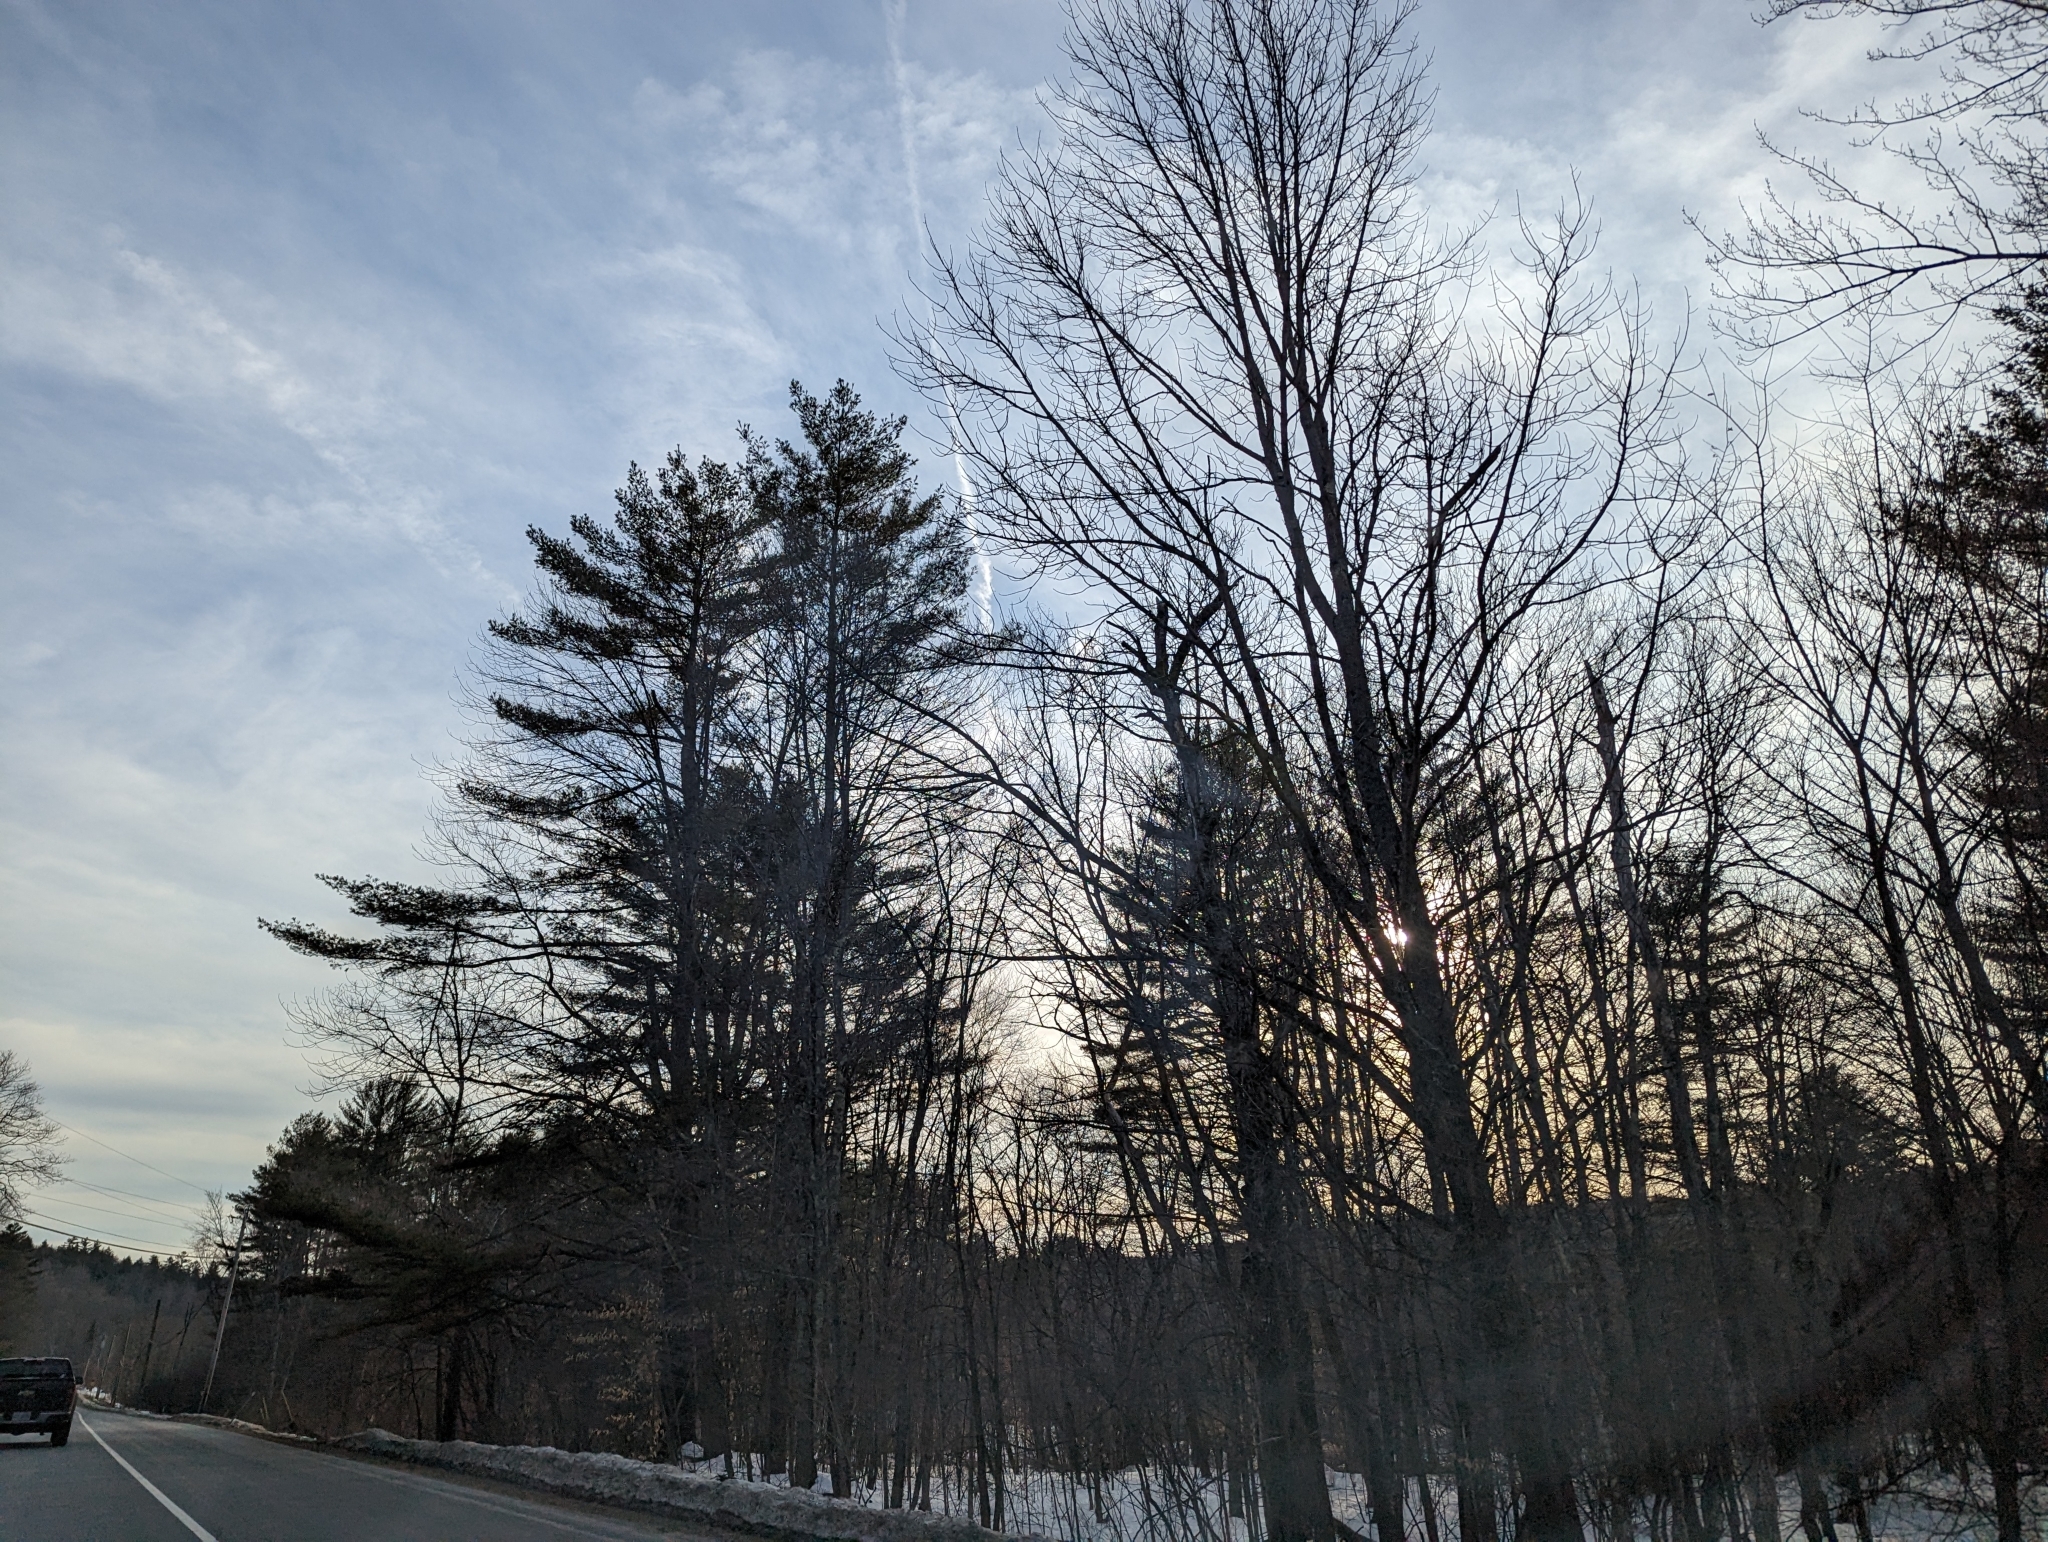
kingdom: Plantae
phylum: Tracheophyta
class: Pinopsida
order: Pinales
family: Pinaceae
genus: Pinus
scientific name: Pinus strobus
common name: Weymouth pine
